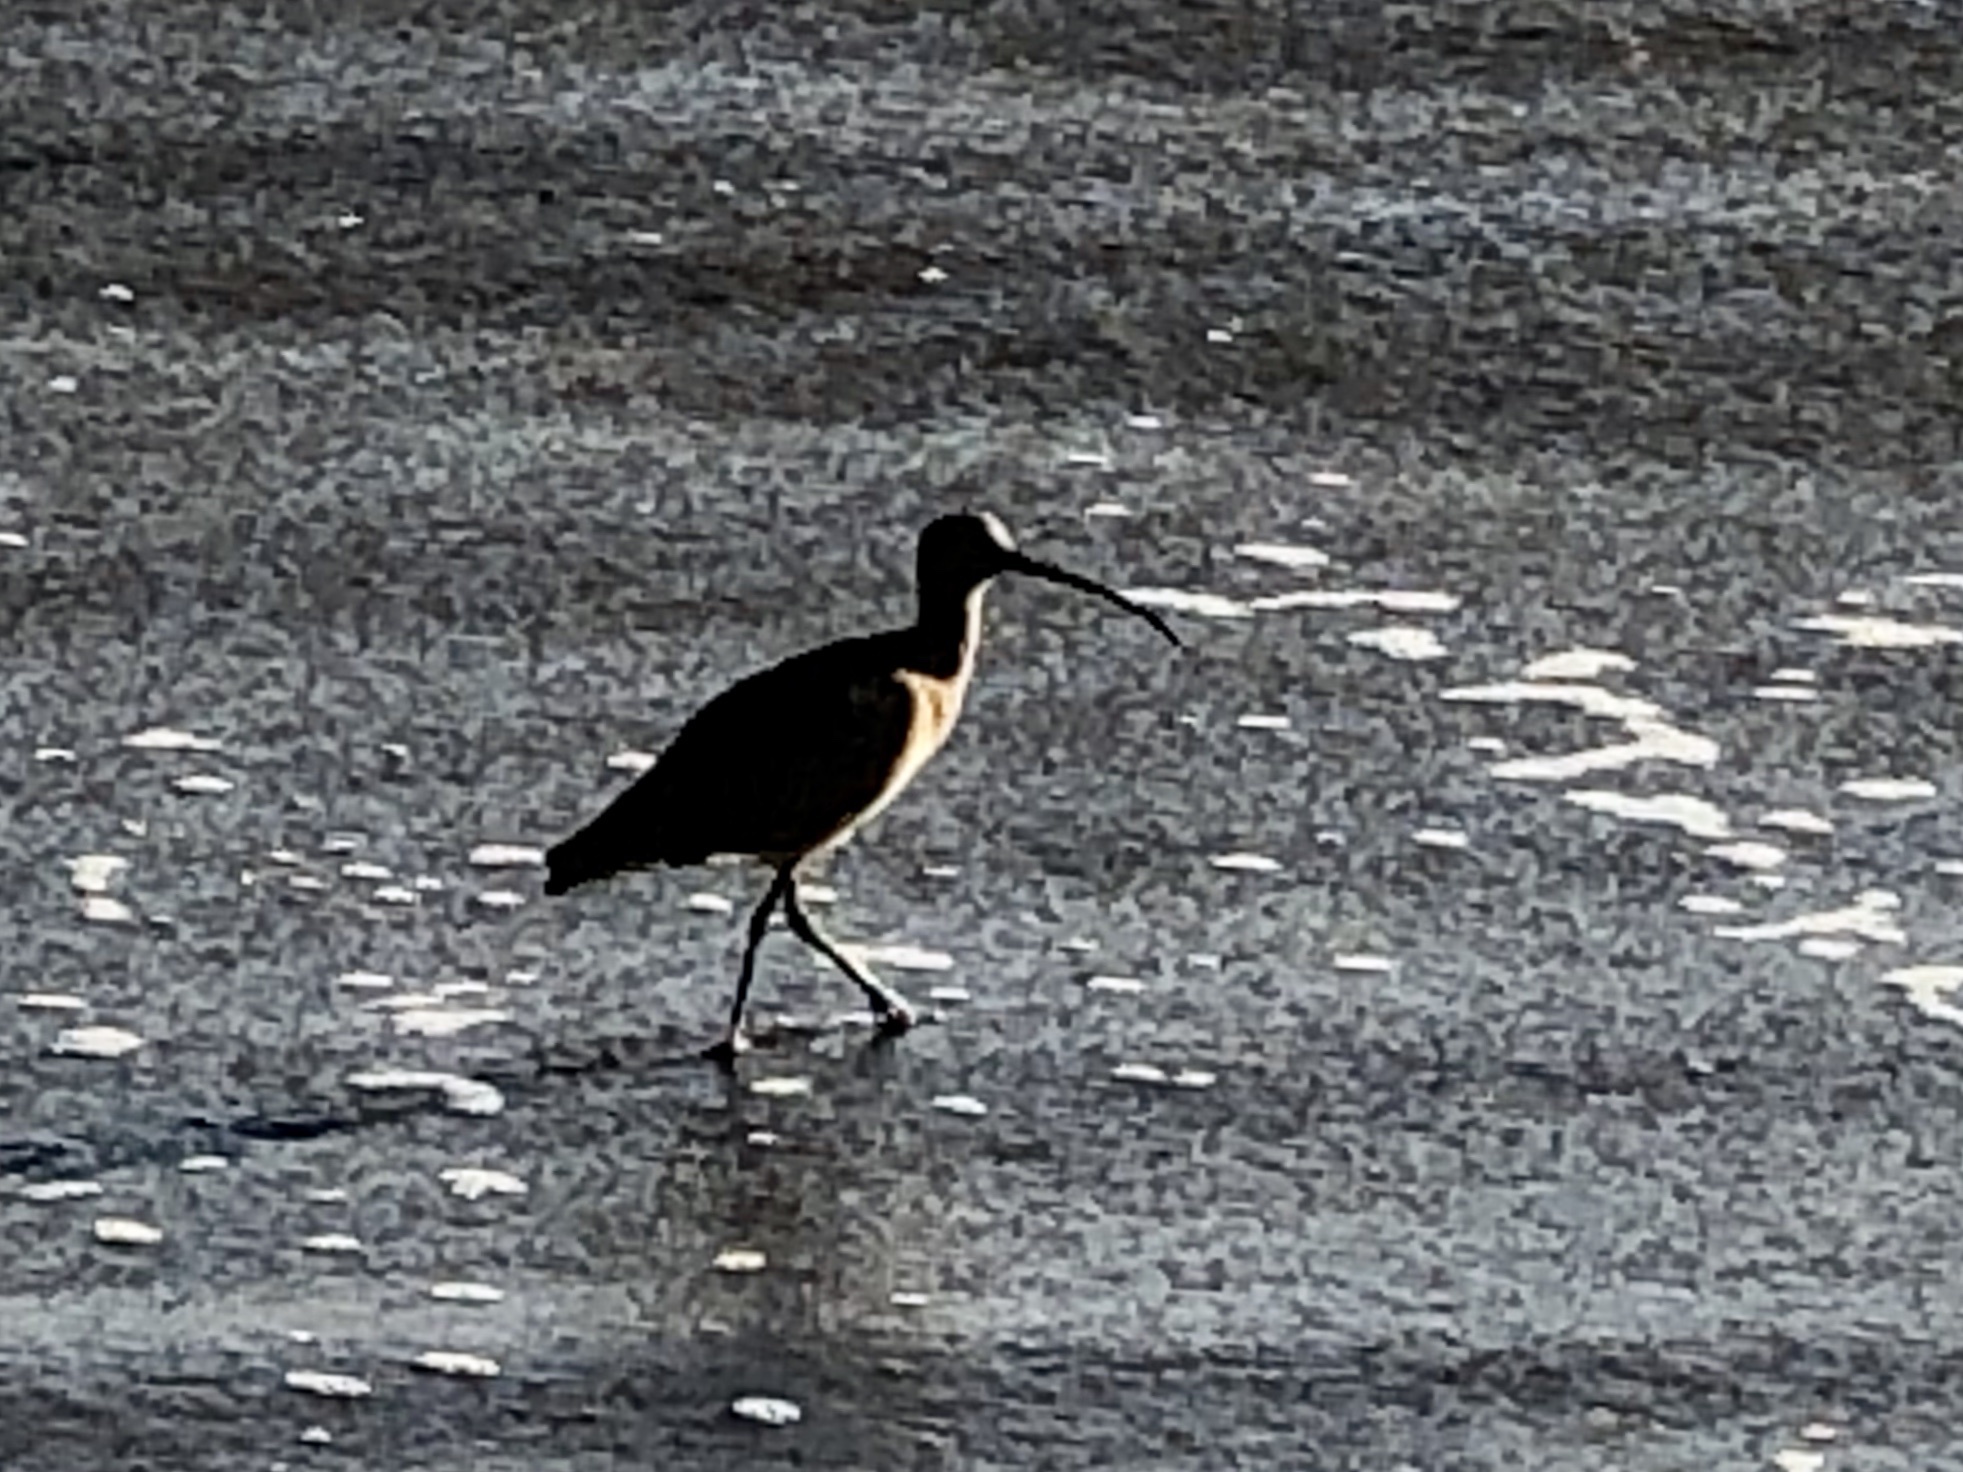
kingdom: Animalia
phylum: Chordata
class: Aves
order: Charadriiformes
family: Scolopacidae
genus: Numenius
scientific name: Numenius americanus
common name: Long-billed curlew
